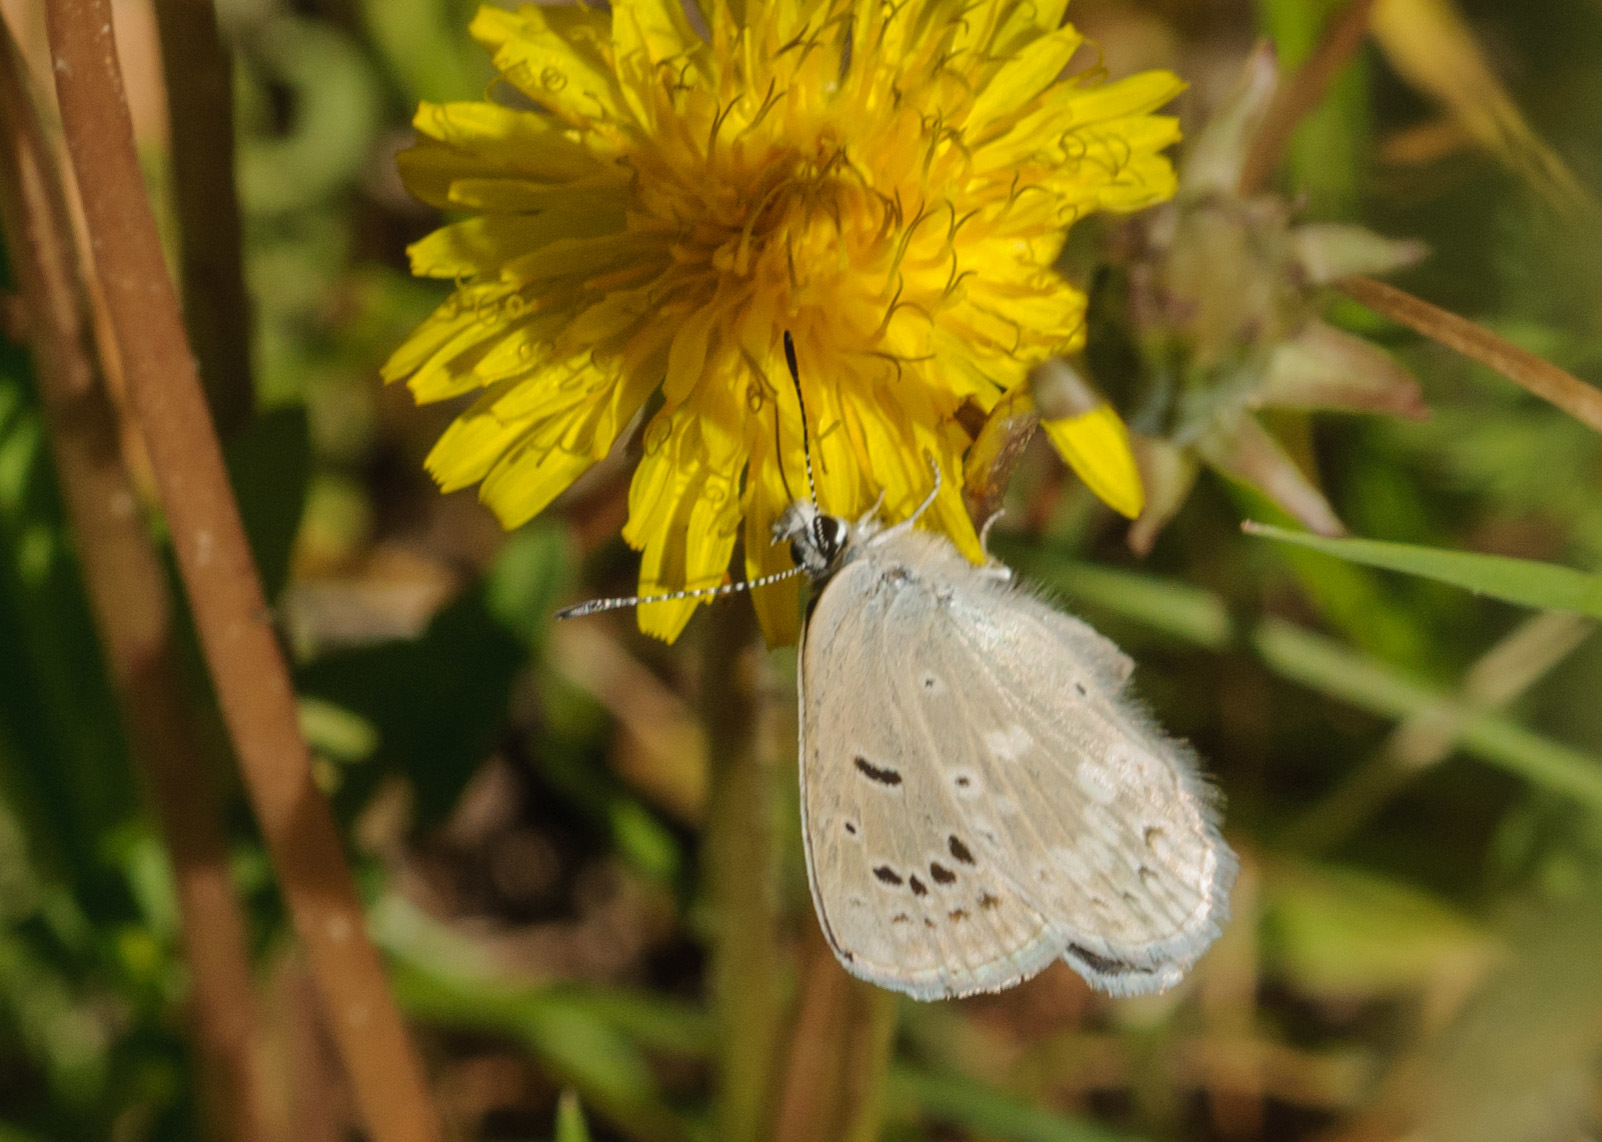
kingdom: Animalia
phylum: Arthropoda
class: Insecta
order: Lepidoptera
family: Lycaenidae
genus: Icaricia
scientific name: Icaricia icarioides
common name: Boisduval's blue
